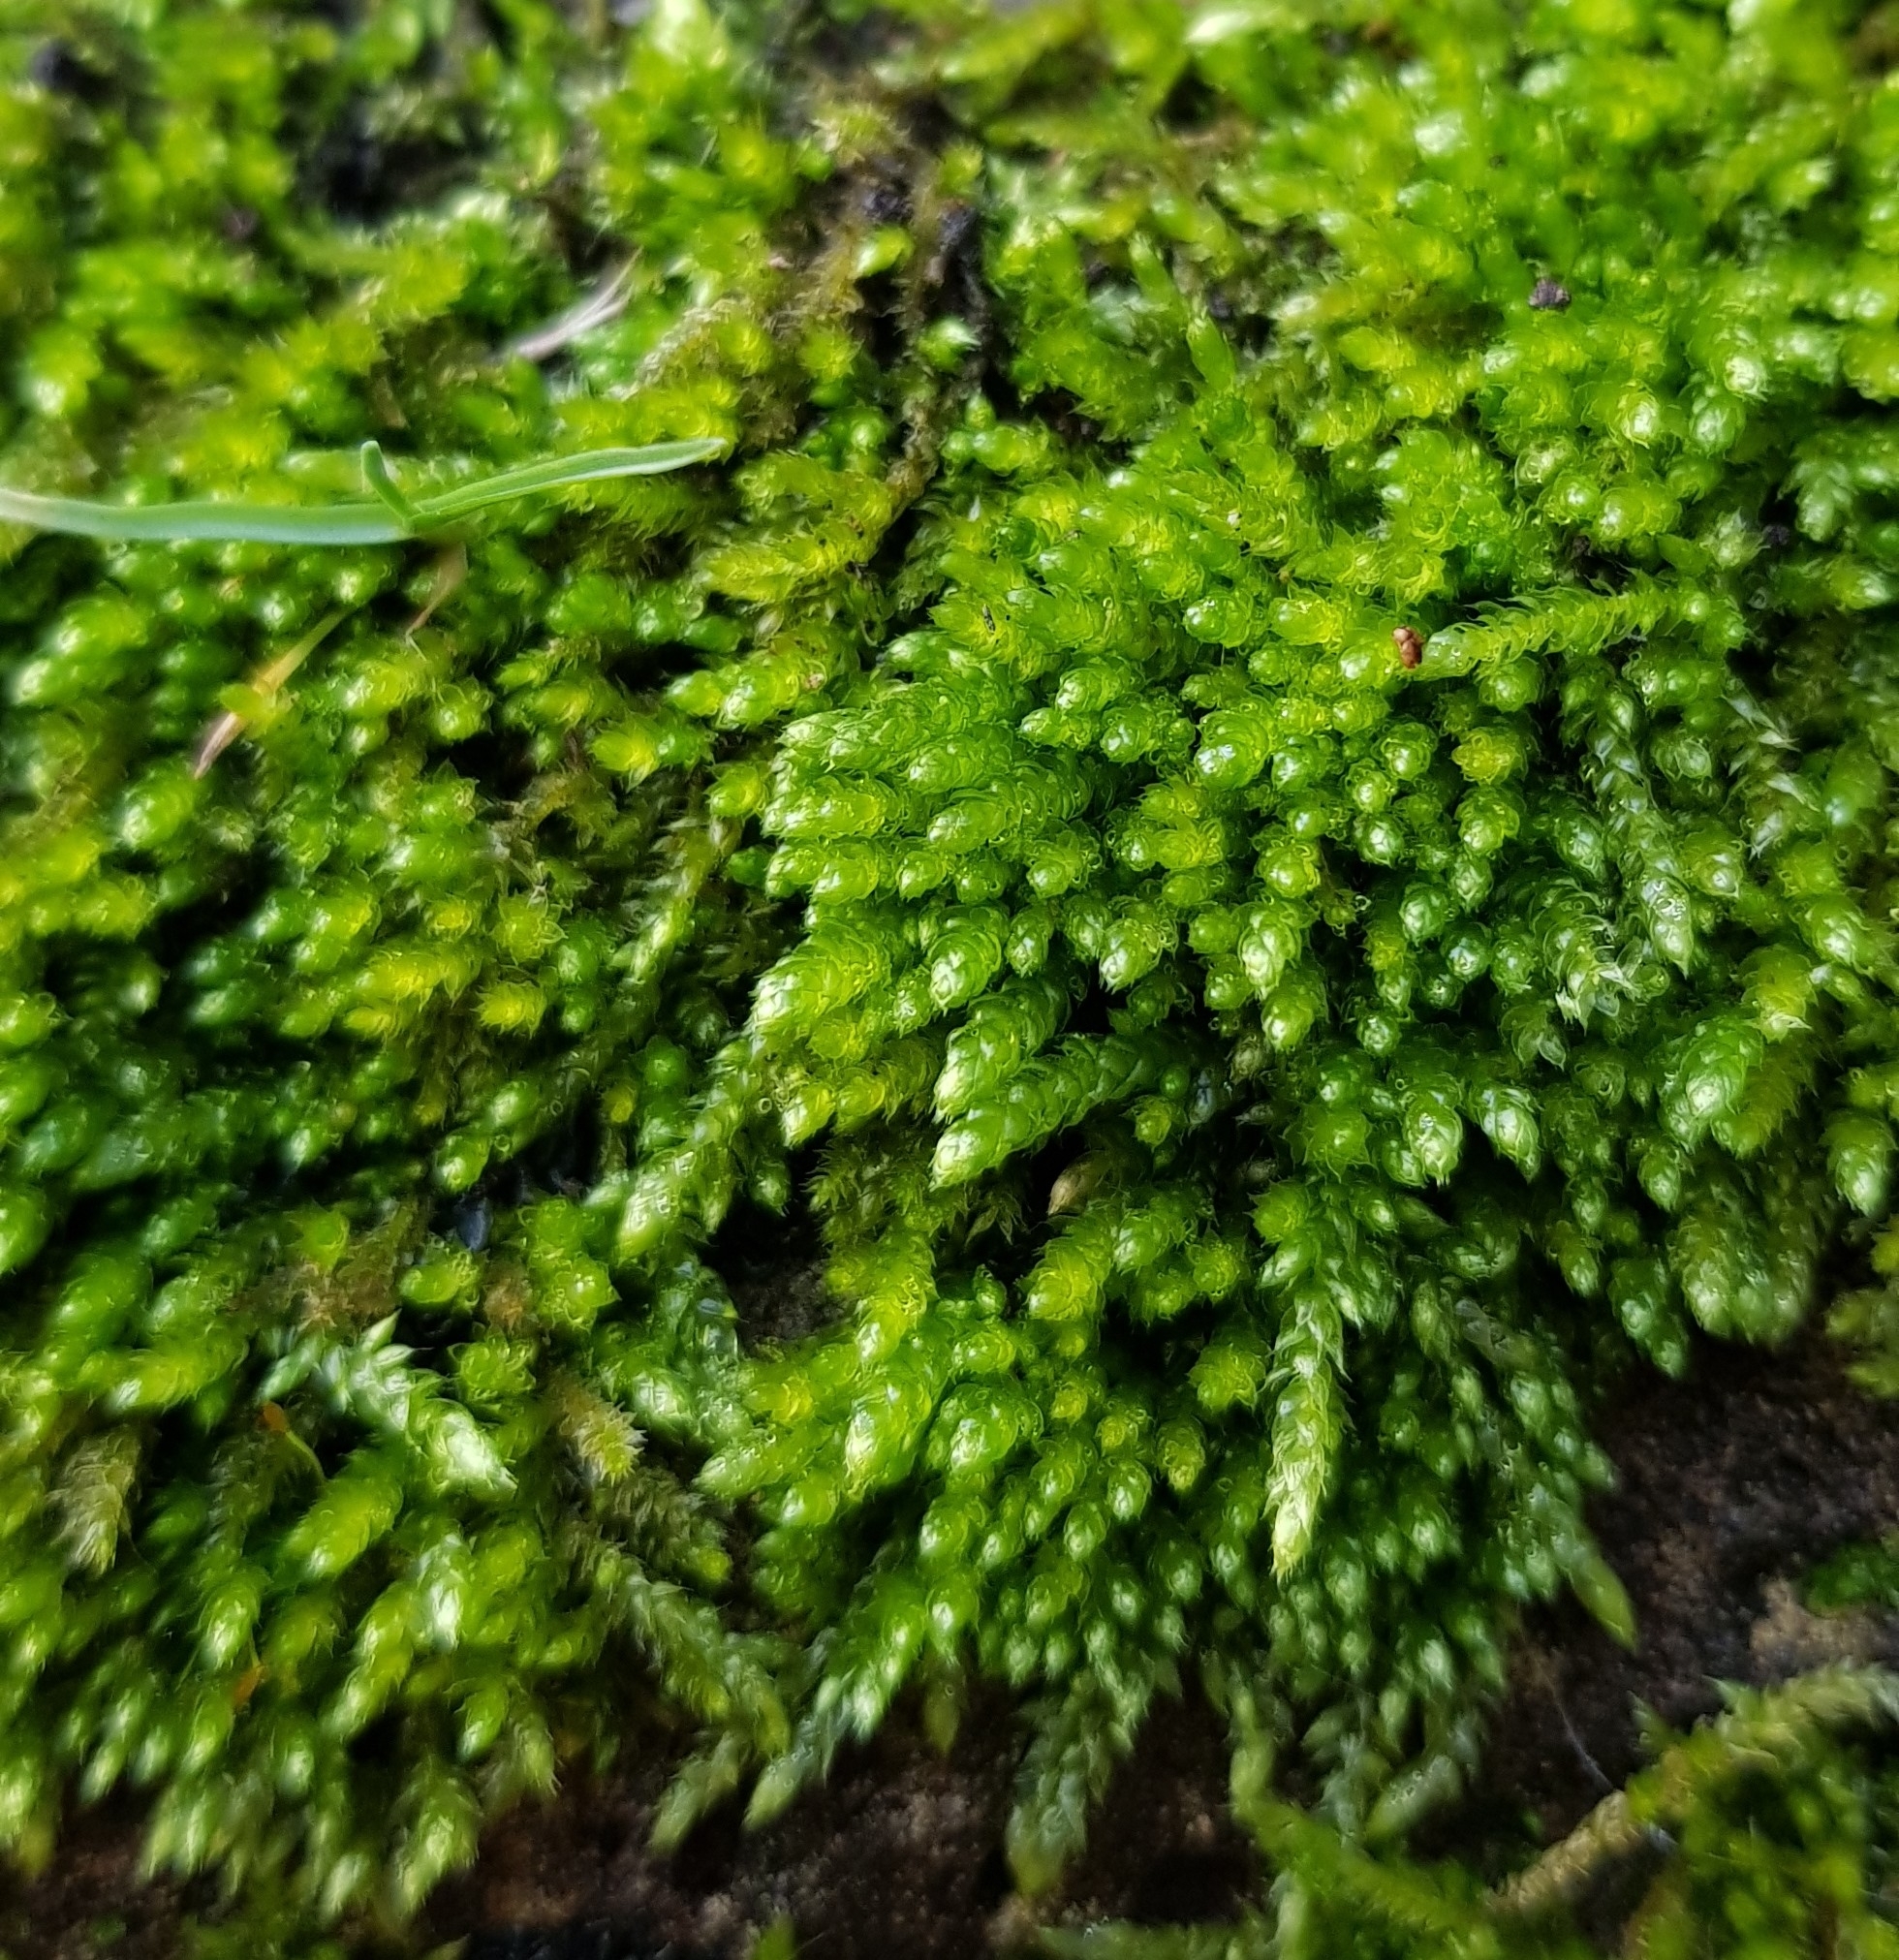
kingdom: Plantae
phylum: Bryophyta
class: Bryopsida
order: Hypnales
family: Brachytheciaceae
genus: Rhynchostegium
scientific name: Rhynchostegium confertum
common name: Clustered feather-moss
